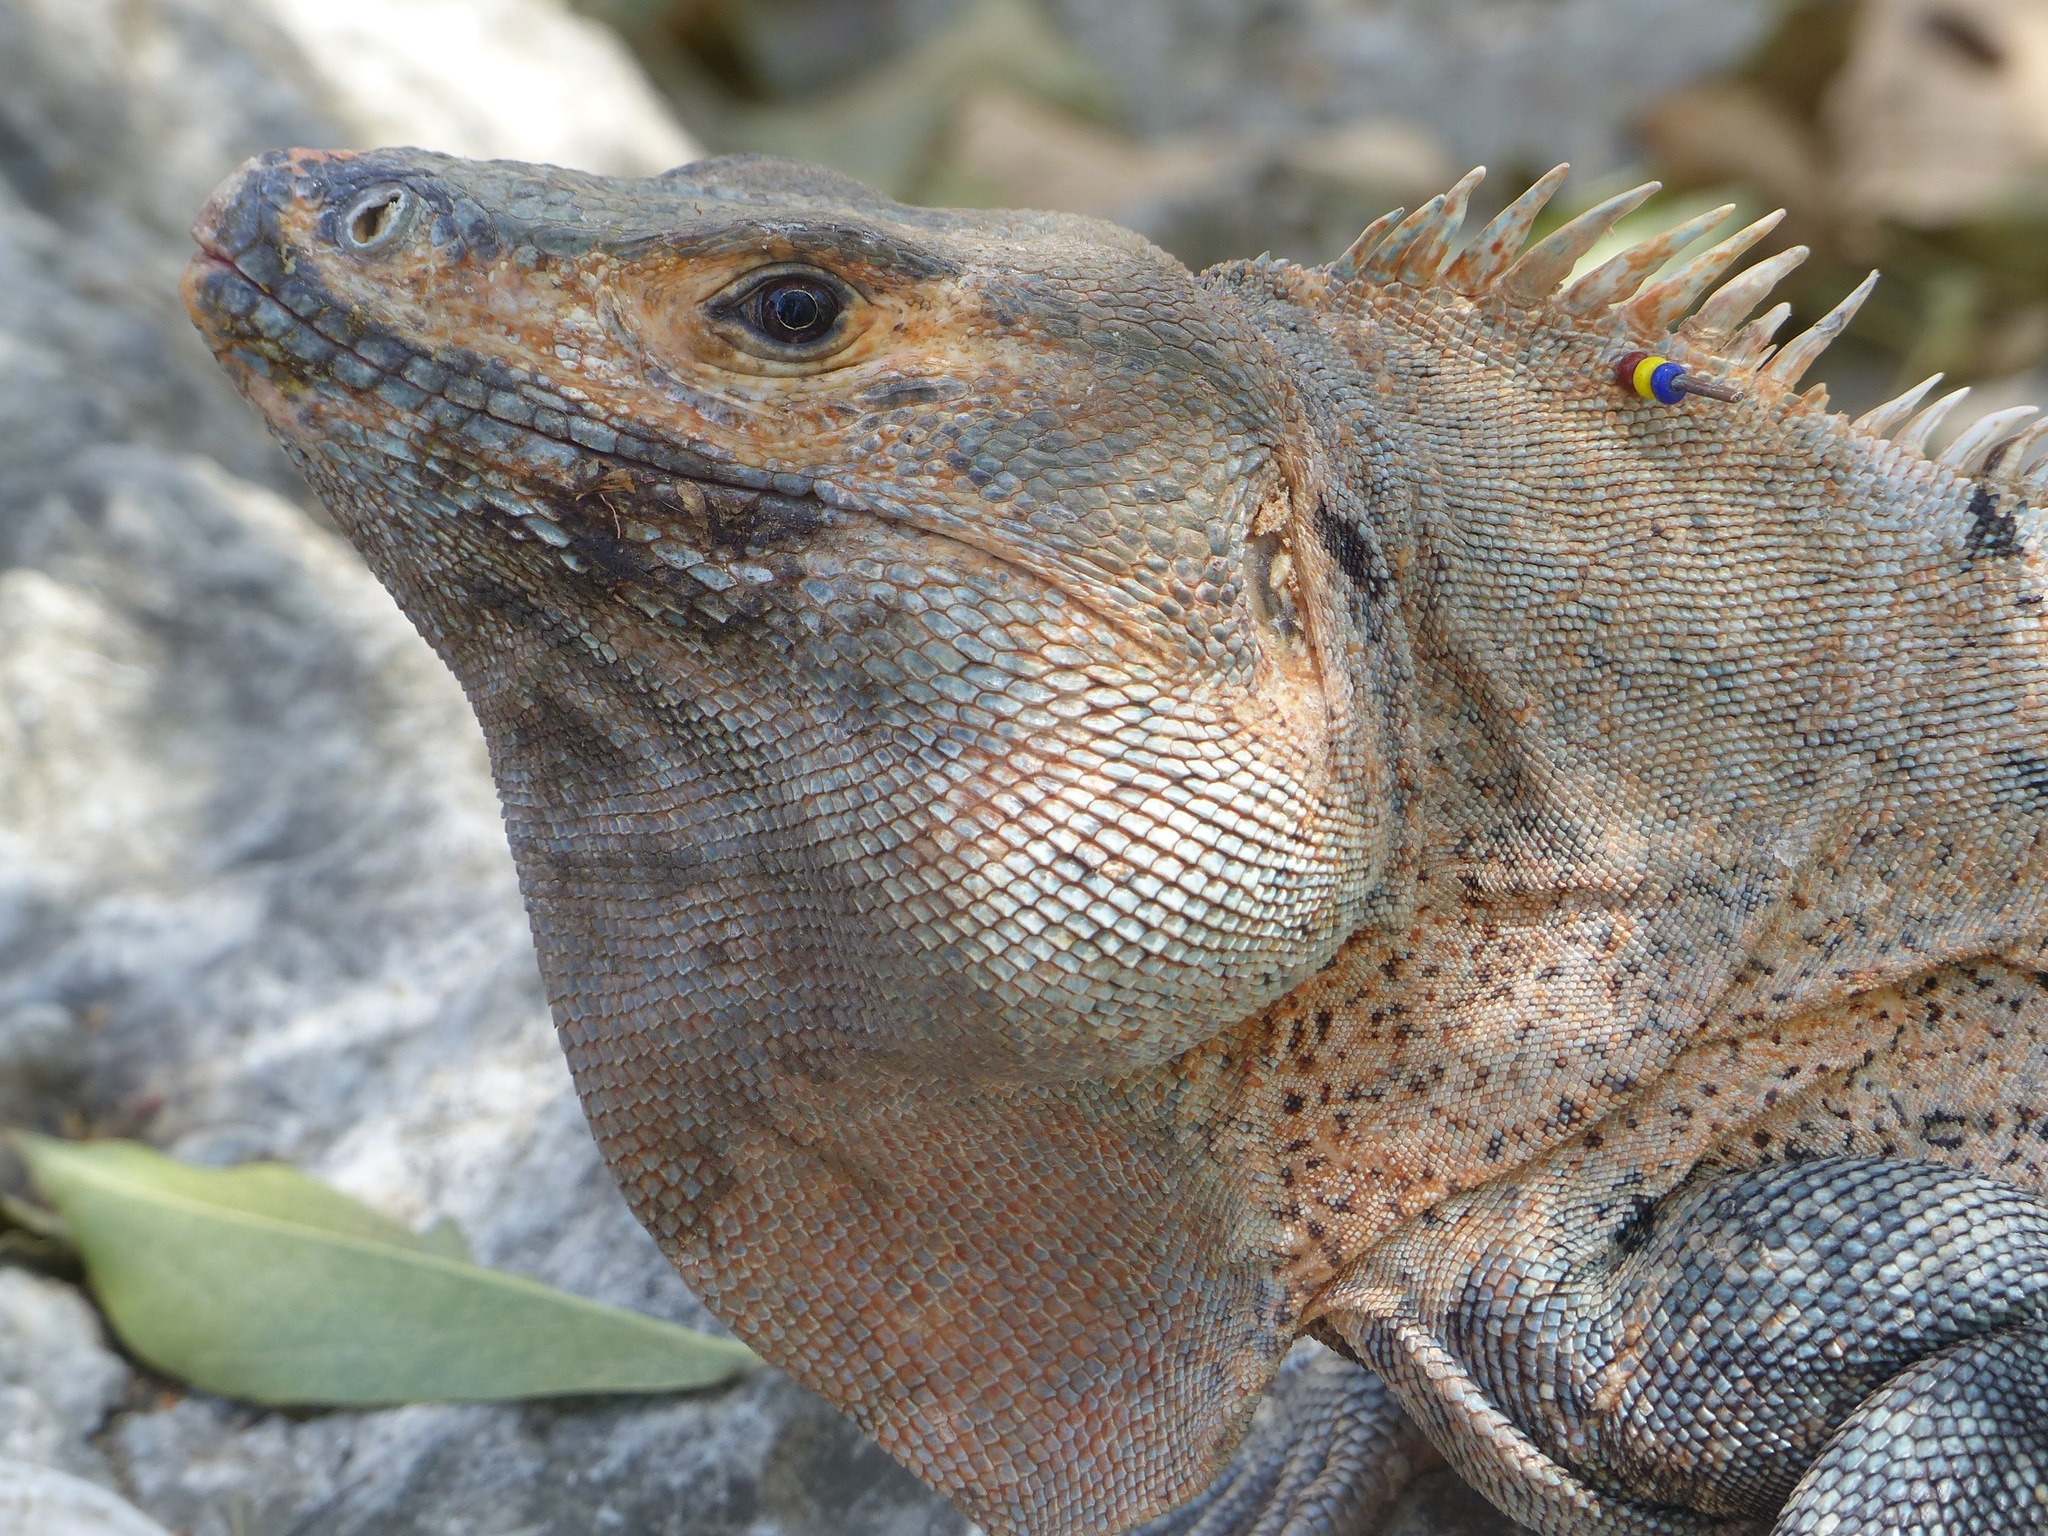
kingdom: Animalia
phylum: Chordata
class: Squamata
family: Iguanidae
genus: Ctenosaura
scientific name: Ctenosaura similis
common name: Black spiny-tailed iguana
